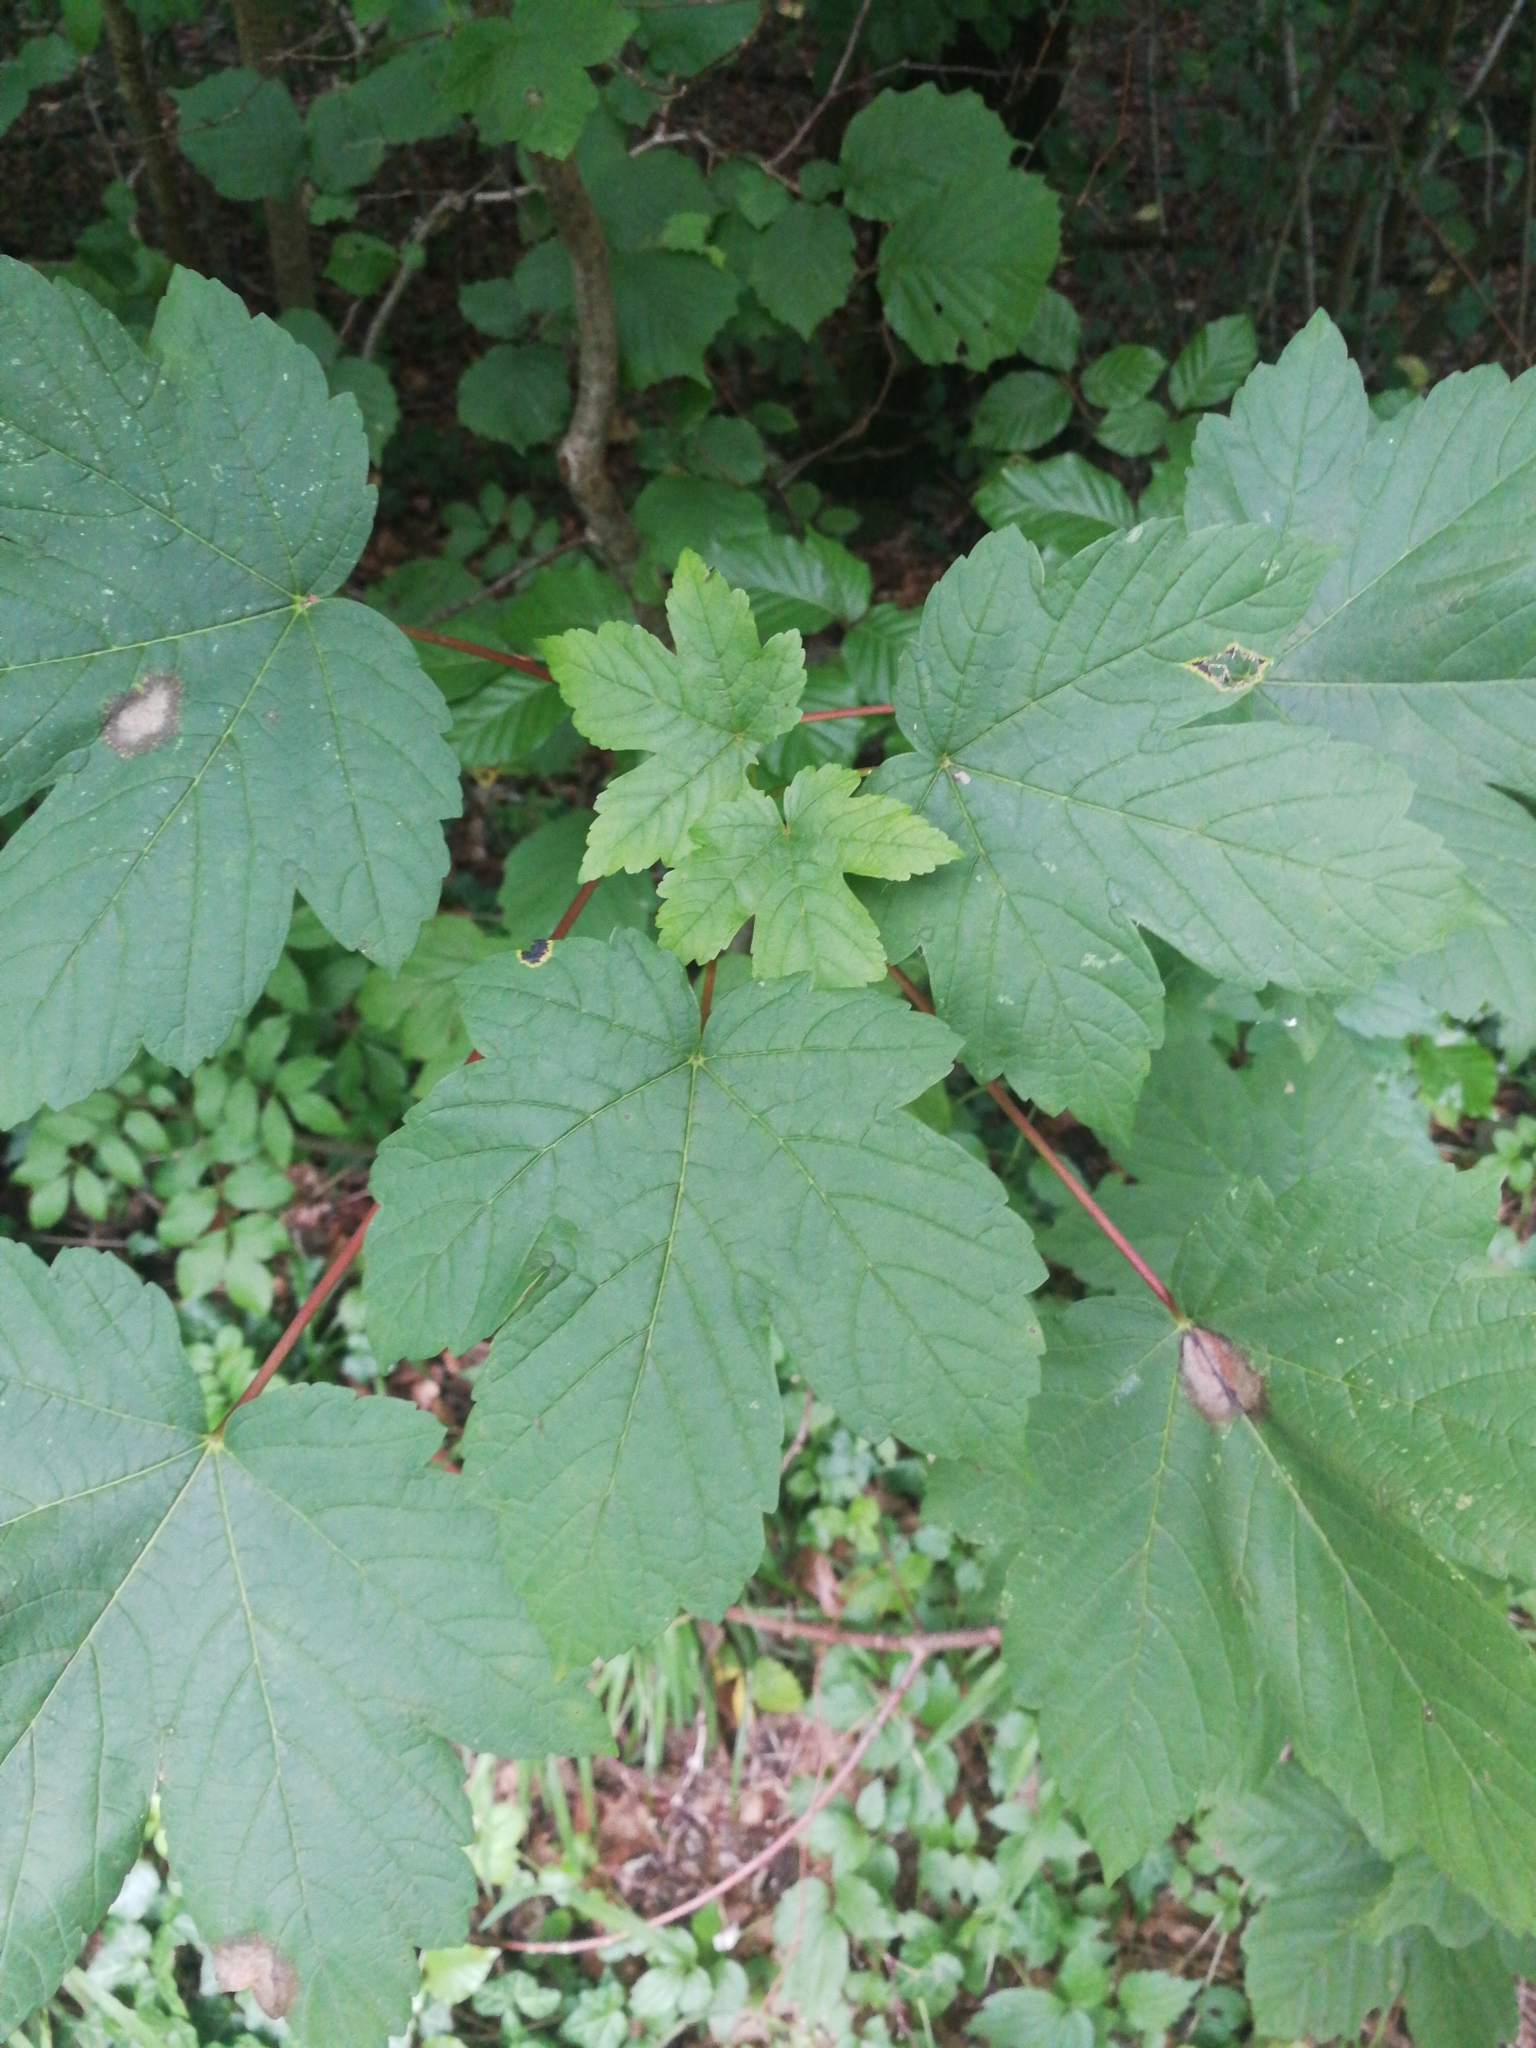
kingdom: Plantae
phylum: Tracheophyta
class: Magnoliopsida
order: Sapindales
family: Sapindaceae
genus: Acer
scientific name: Acer pseudoplatanus
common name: Sycamore
